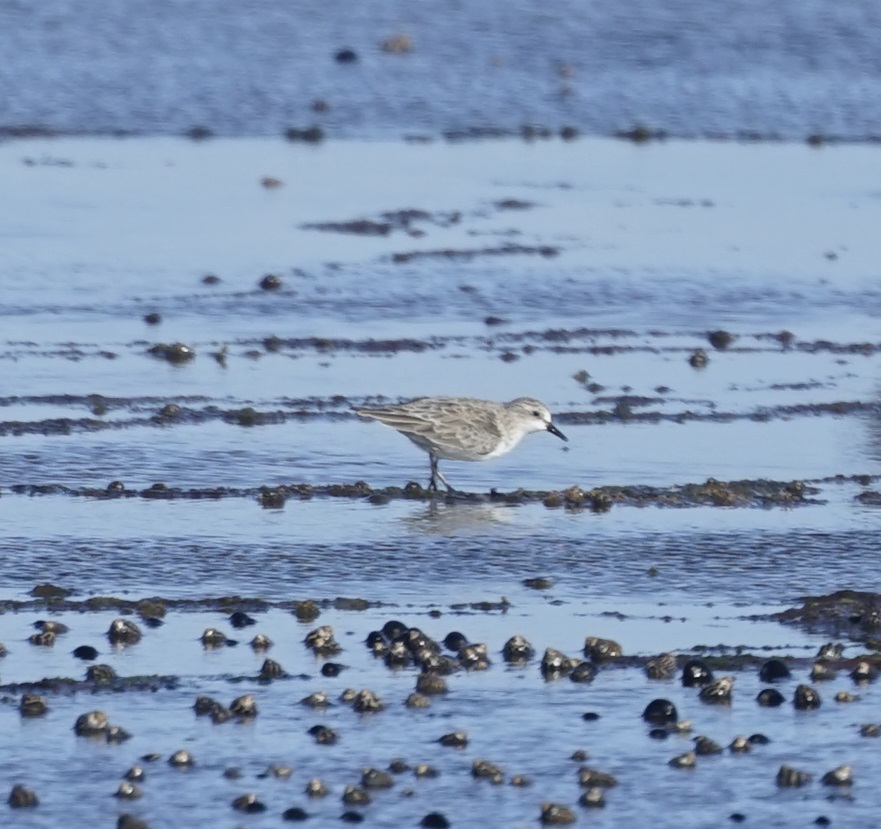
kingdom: Animalia
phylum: Chordata
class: Aves
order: Charadriiformes
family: Scolopacidae
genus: Calidris
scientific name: Calidris ruficollis
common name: Red-necked stint
